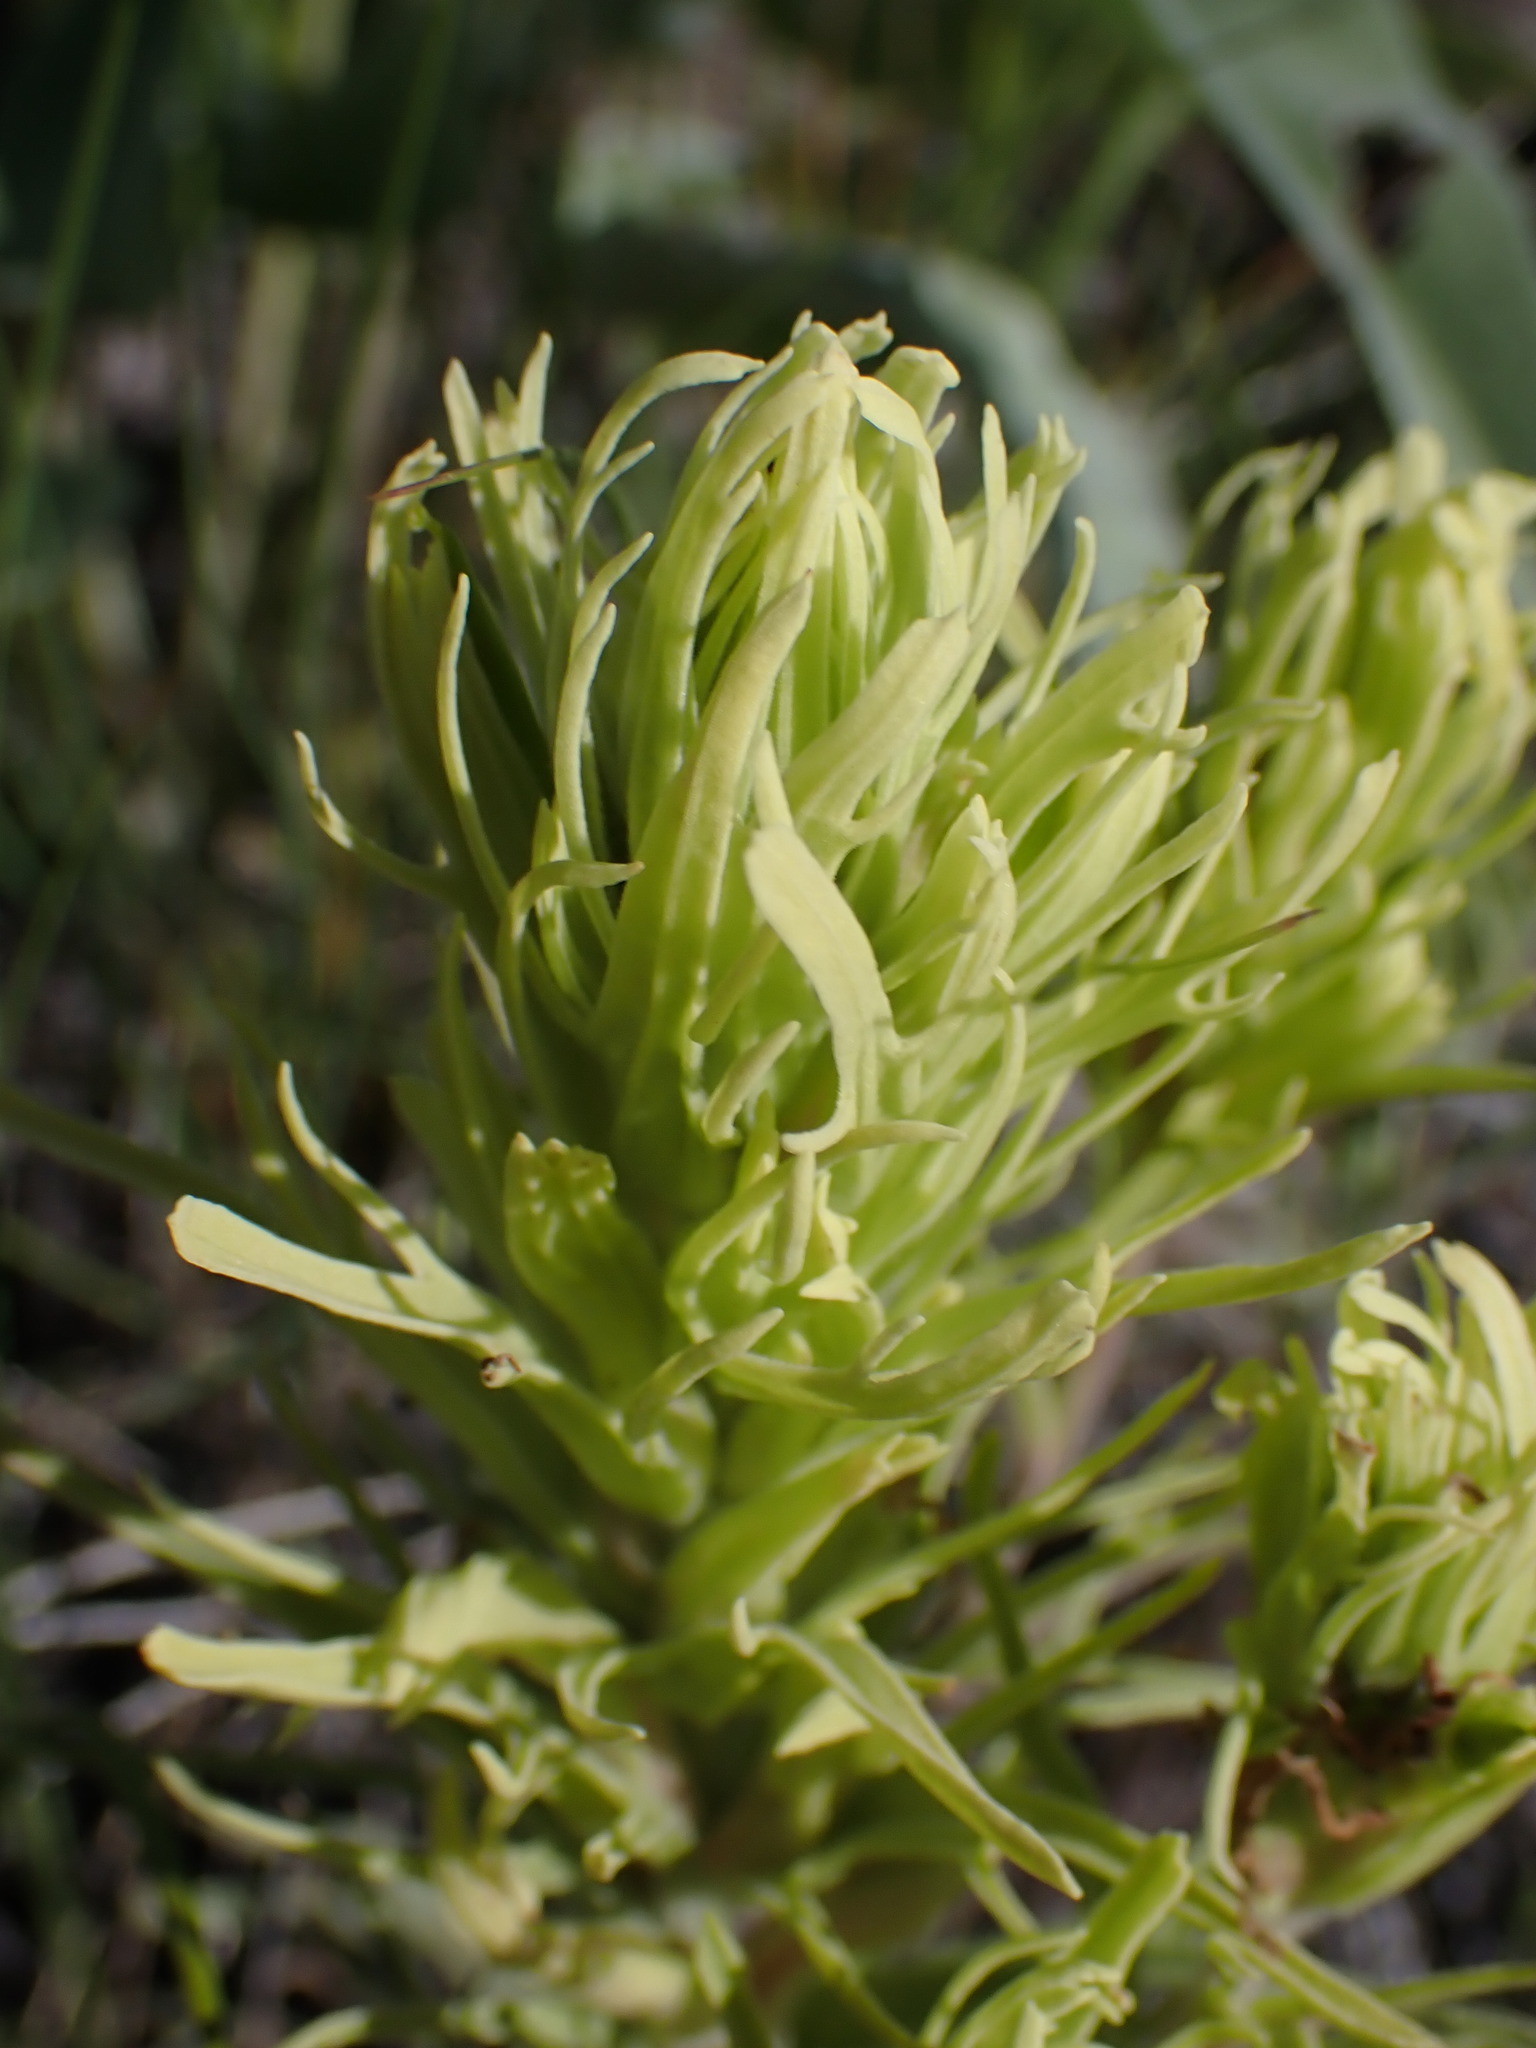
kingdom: Plantae
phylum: Tracheophyta
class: Magnoliopsida
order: Lamiales
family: Orobanchaceae
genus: Castilleja
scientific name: Castilleja thompsonii
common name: Thompson's paintbrush
